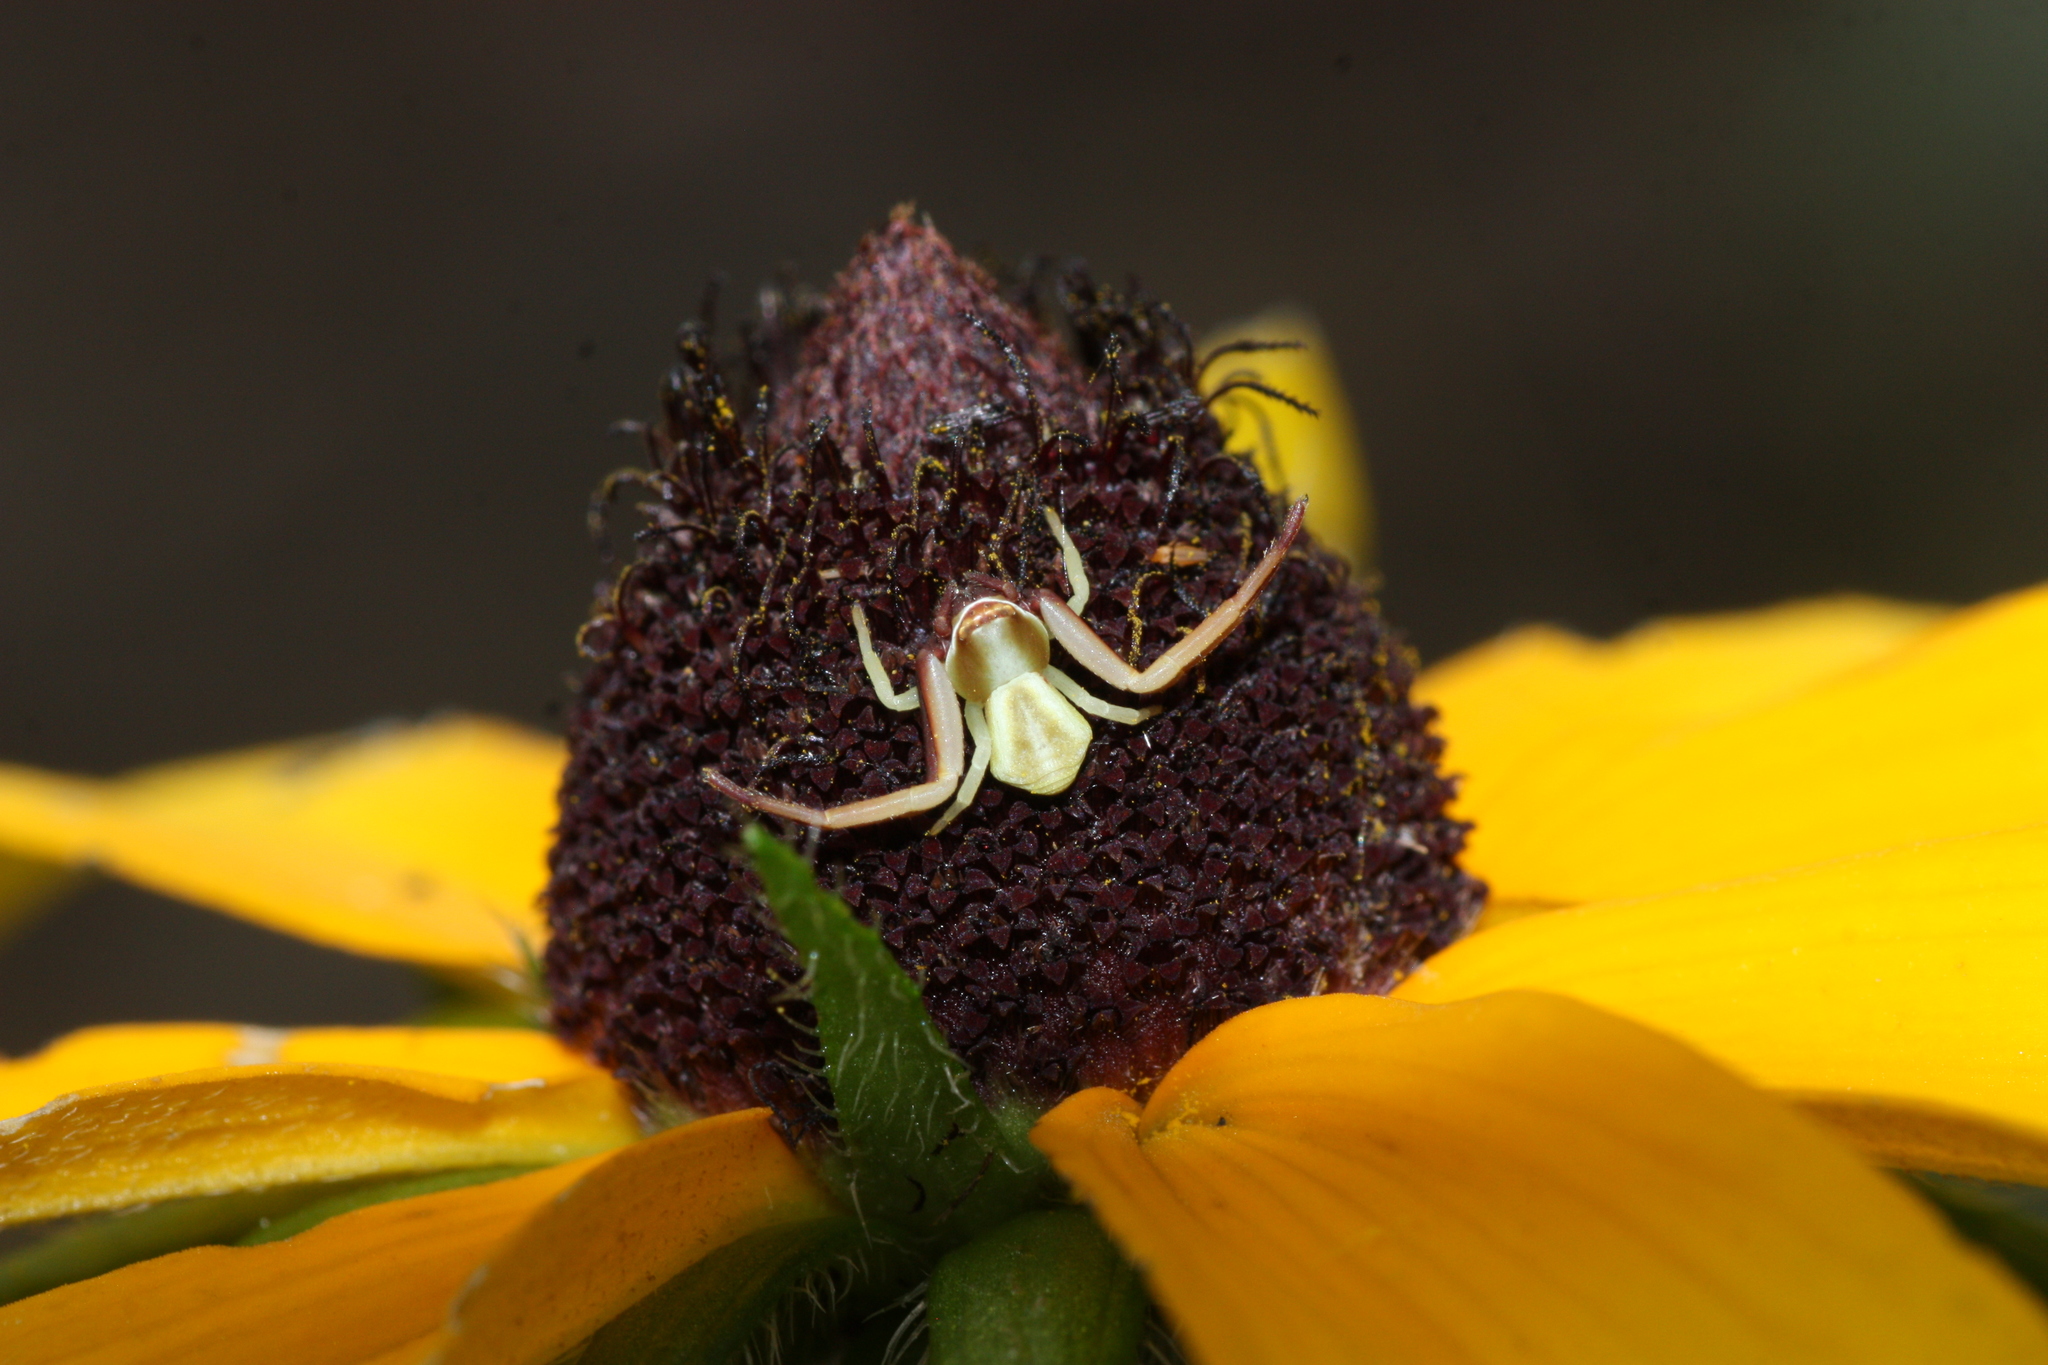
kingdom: Animalia
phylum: Arthropoda
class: Arachnida
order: Araneae
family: Thomisidae
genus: Misumenoides
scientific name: Misumenoides formosipes
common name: White-banded crab spider
